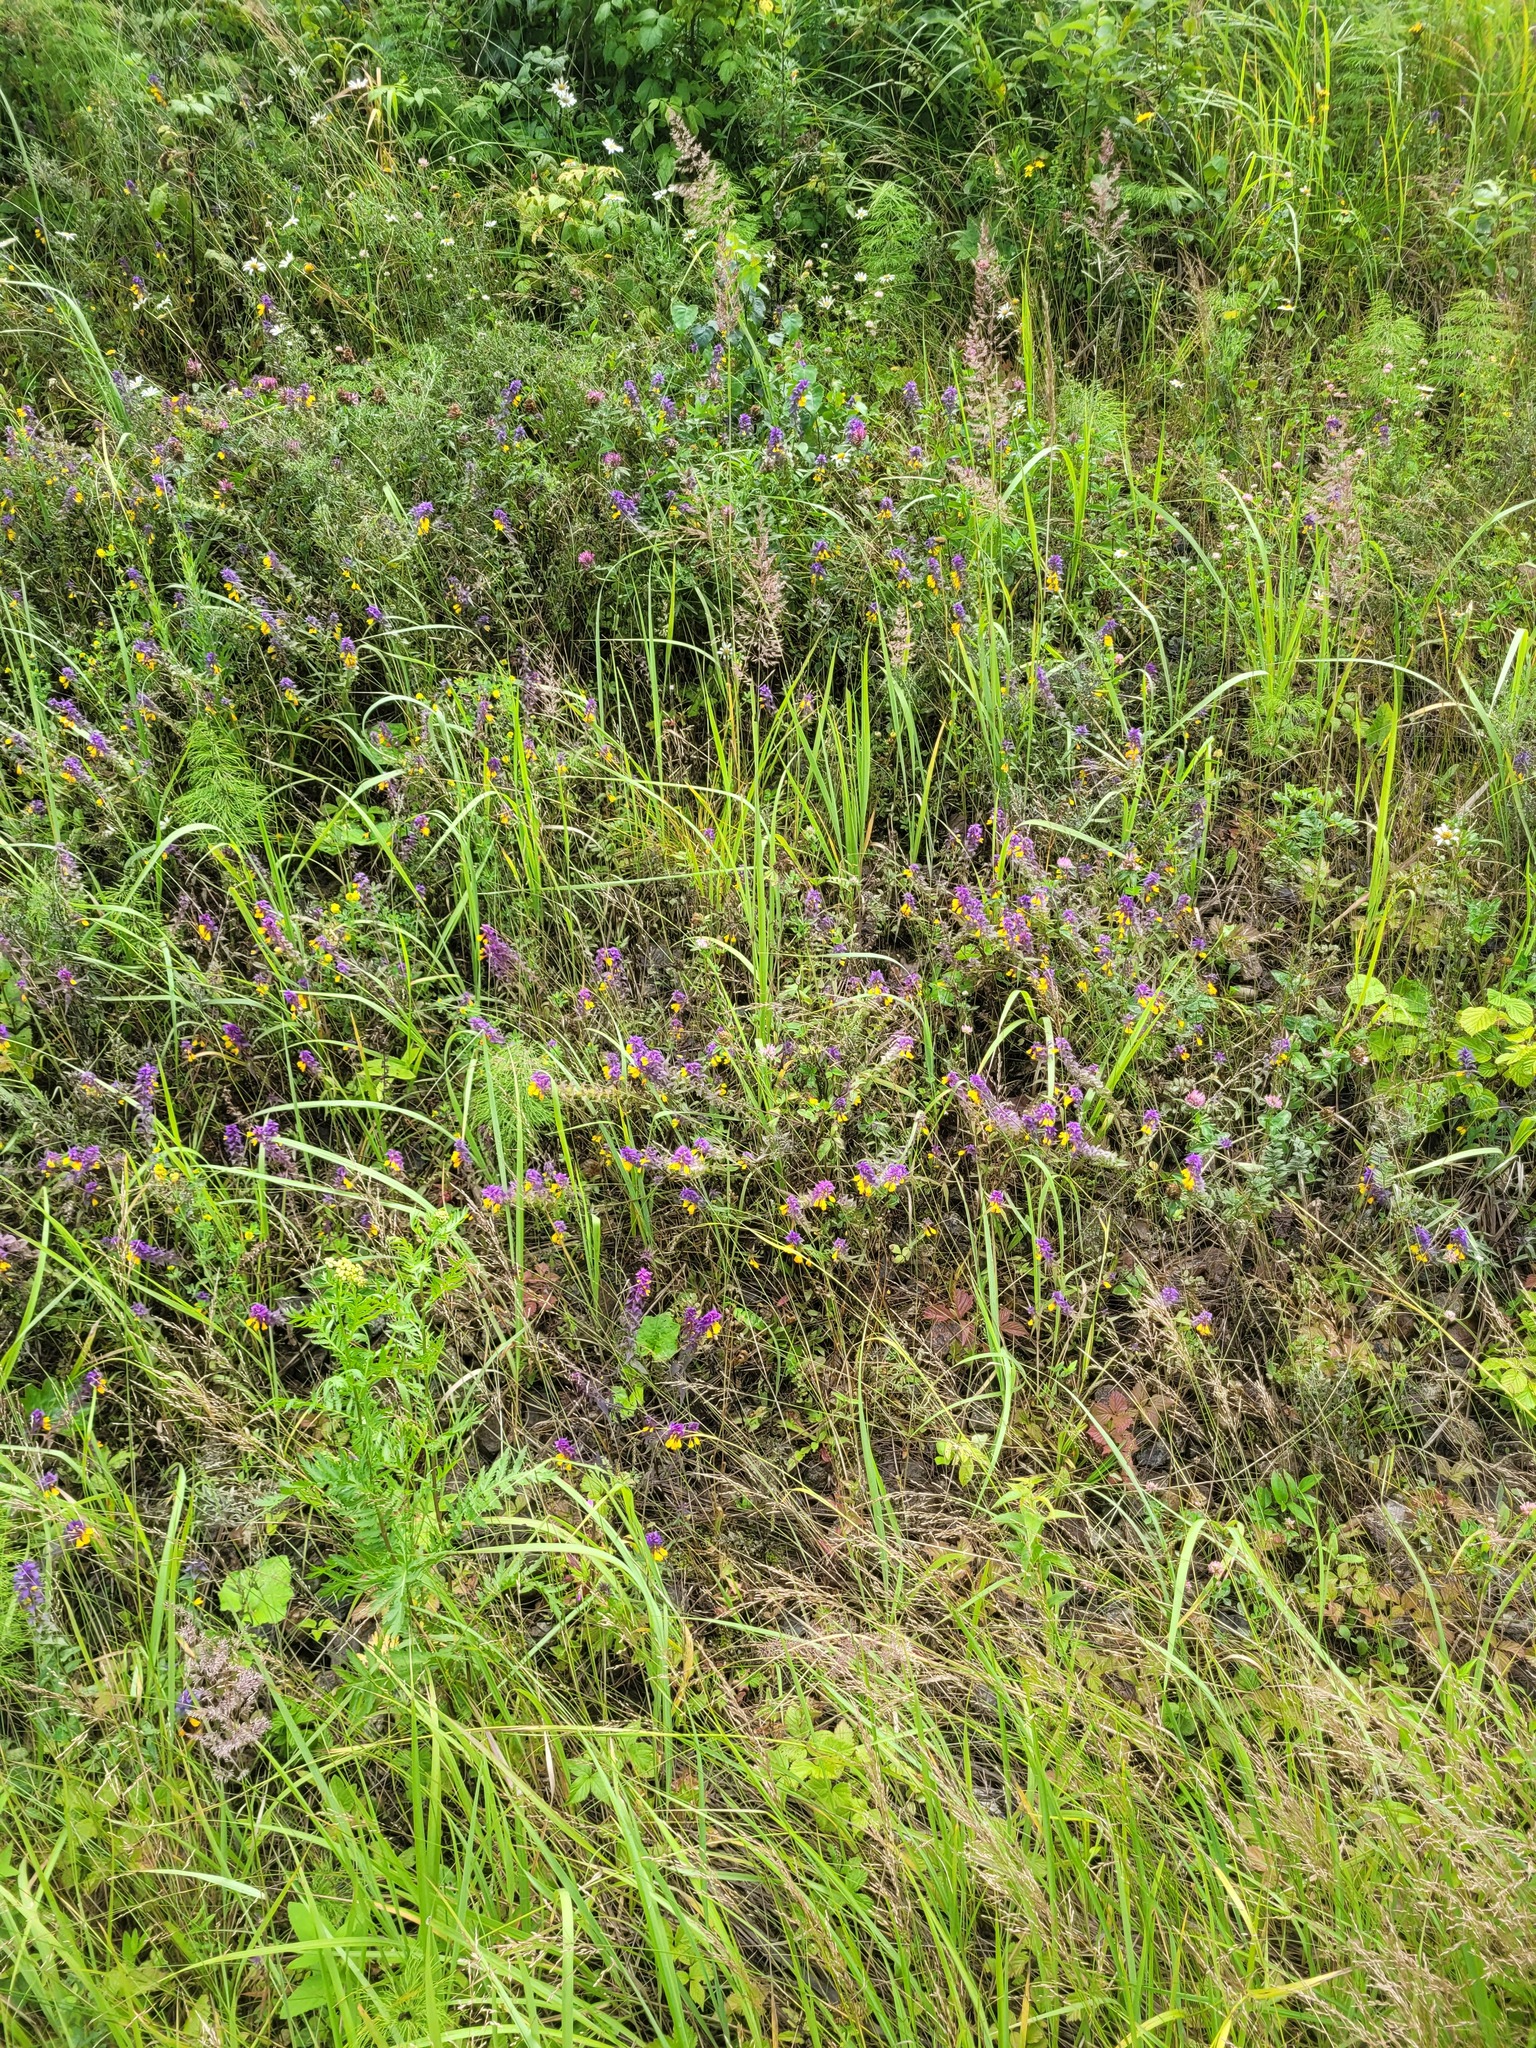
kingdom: Plantae
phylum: Tracheophyta
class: Magnoliopsida
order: Lamiales
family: Orobanchaceae
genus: Melampyrum
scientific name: Melampyrum nemorosum
